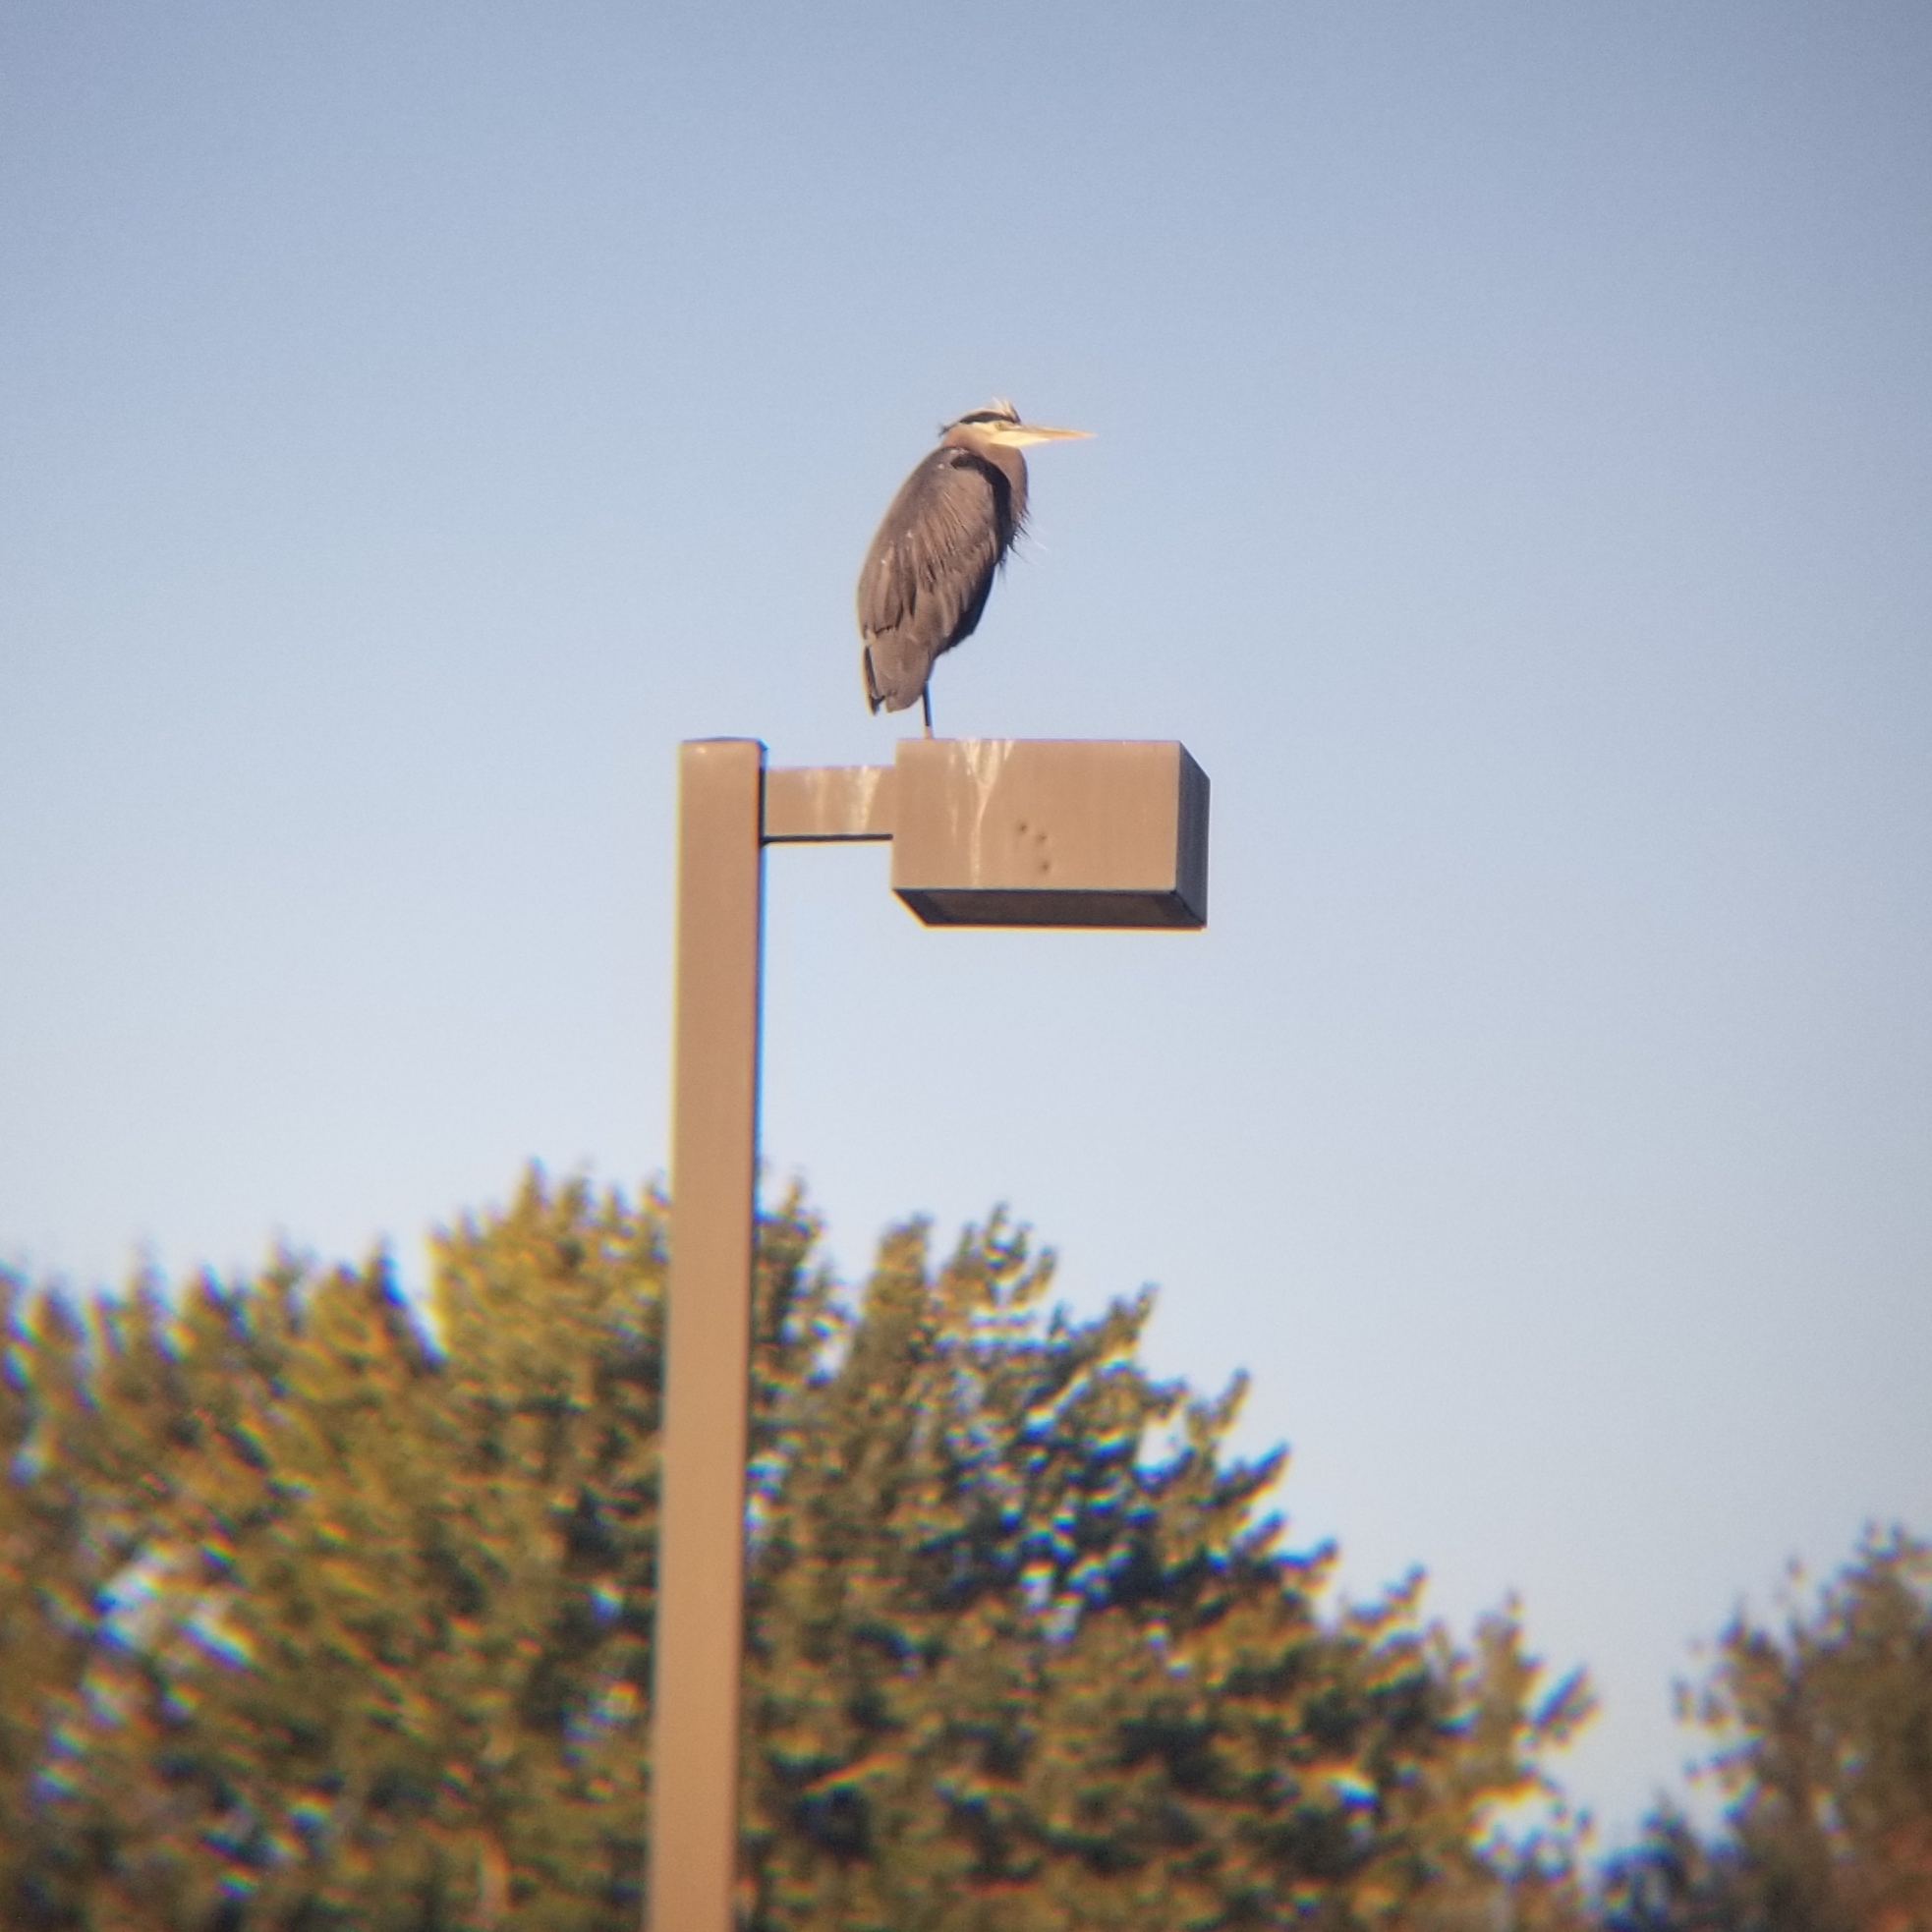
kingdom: Animalia
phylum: Chordata
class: Aves
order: Pelecaniformes
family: Ardeidae
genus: Ardea
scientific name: Ardea herodias
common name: Great blue heron
